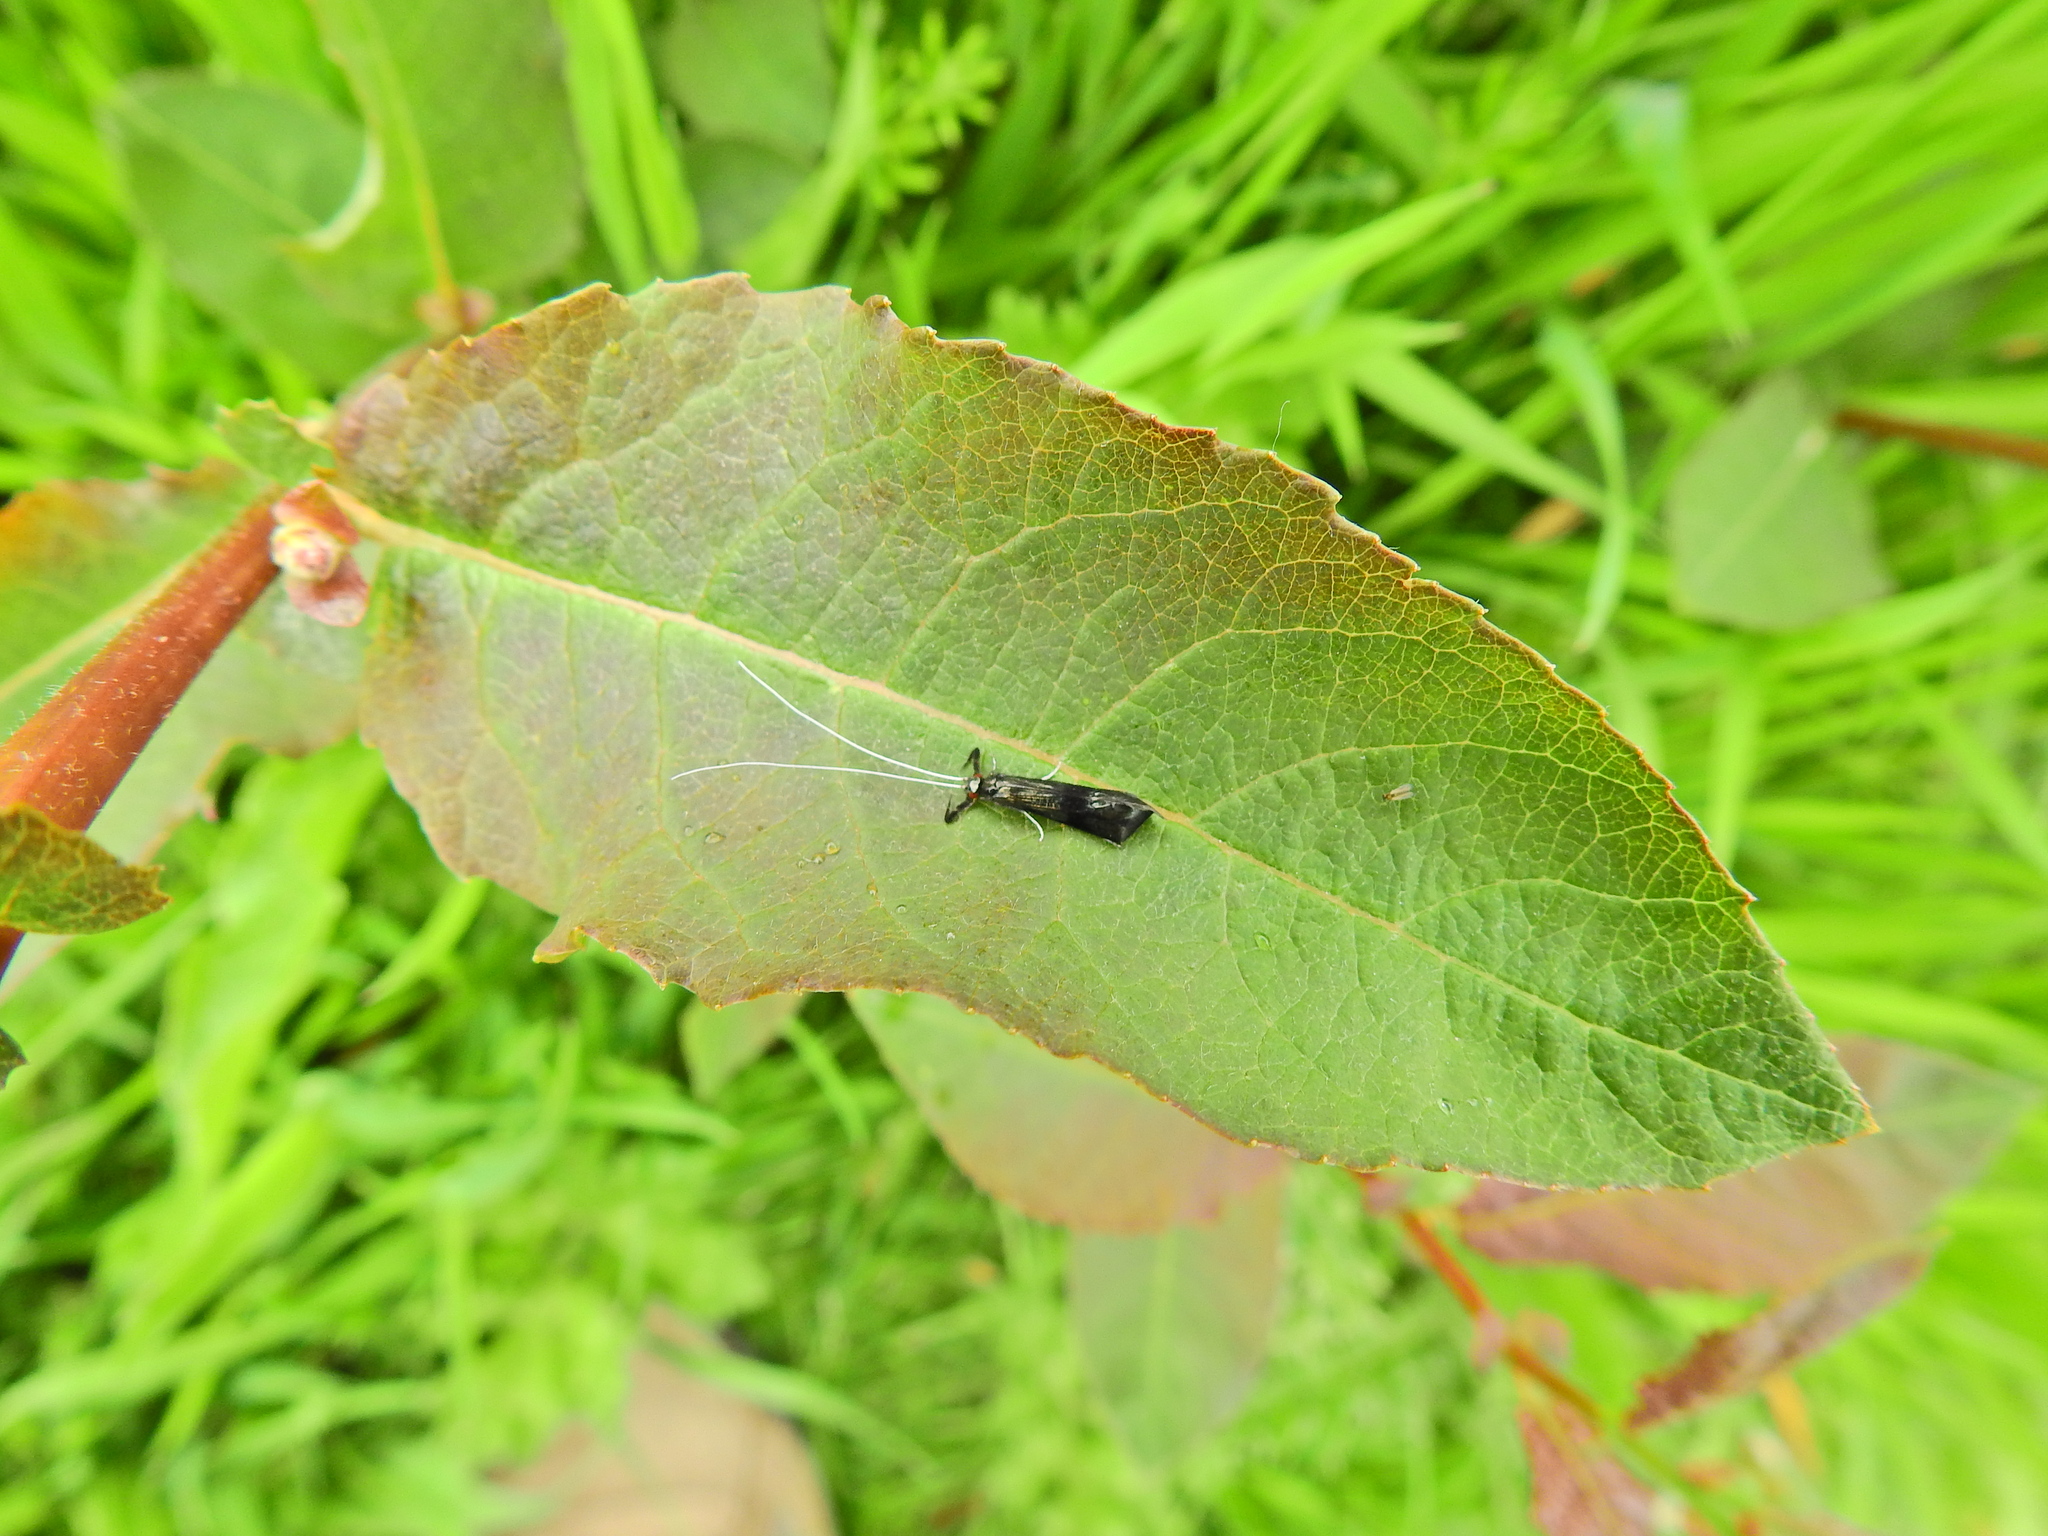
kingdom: Animalia
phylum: Arthropoda
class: Insecta
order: Trichoptera
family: Leptoceridae
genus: Mystacides
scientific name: Mystacides azureus
